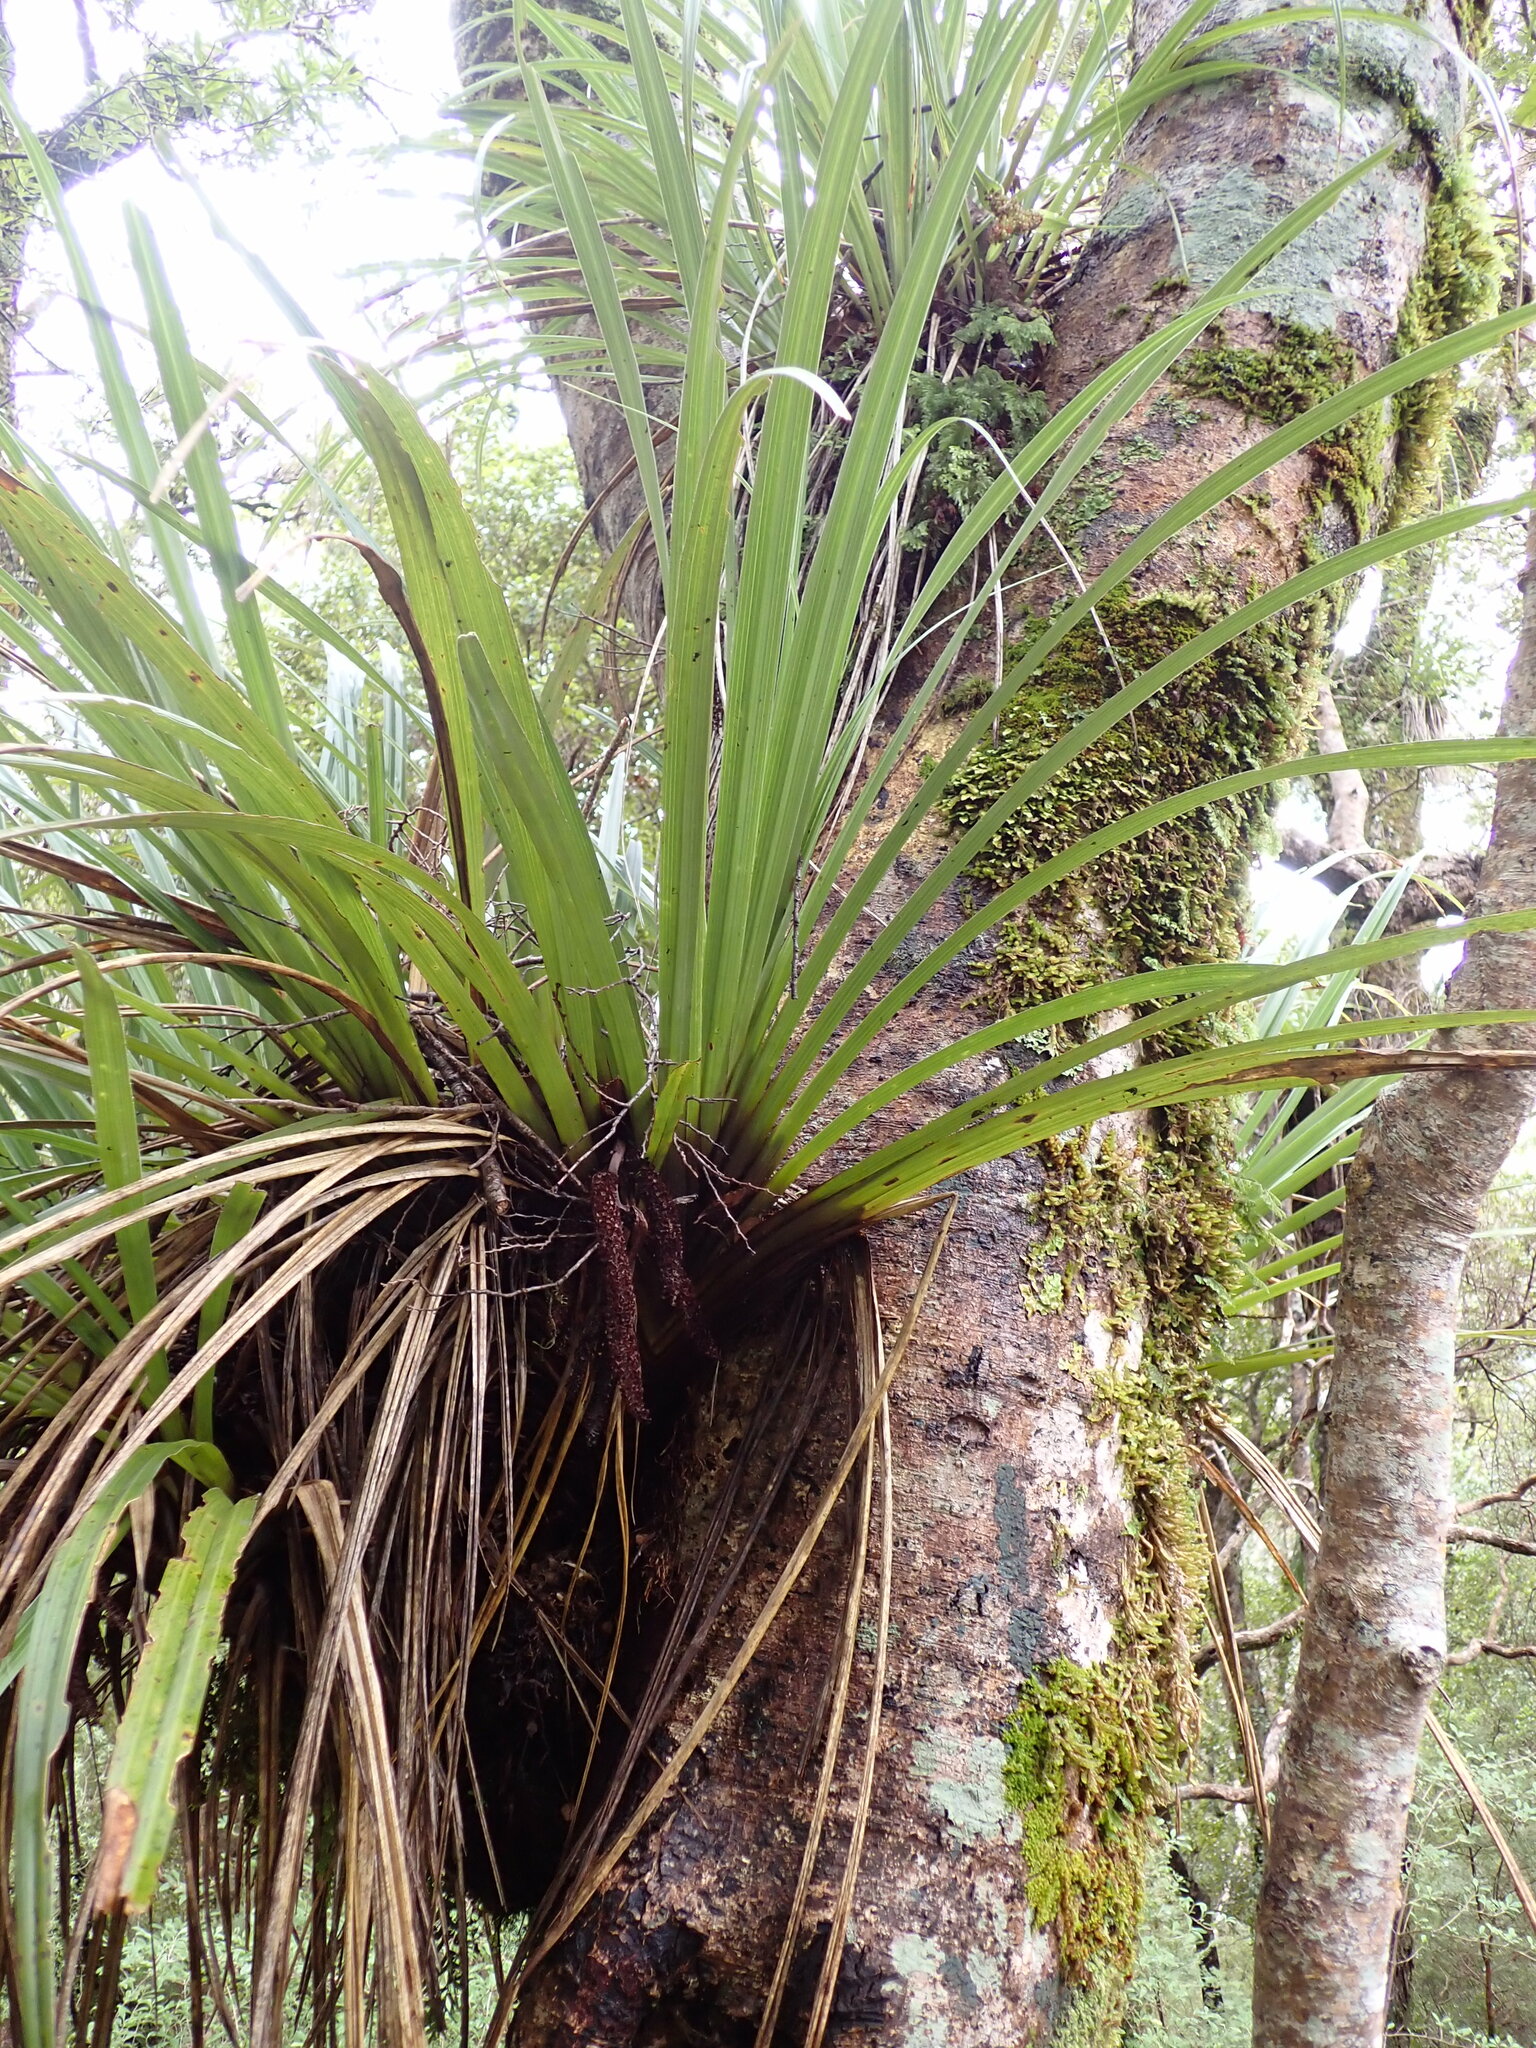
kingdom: Plantae
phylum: Tracheophyta
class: Liliopsida
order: Asparagales
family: Asteliaceae
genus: Astelia
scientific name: Astelia microsperma
